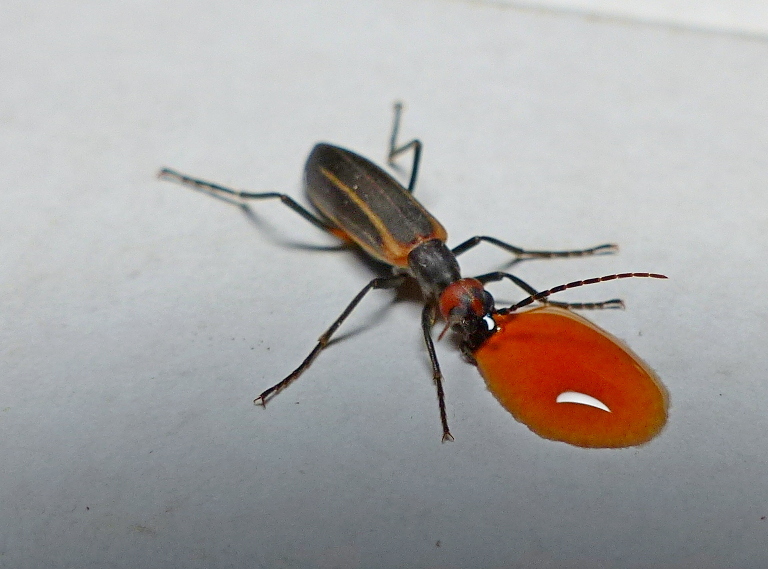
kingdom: Animalia
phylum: Arthropoda
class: Insecta
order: Coleoptera
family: Meloidae
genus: Epicauta
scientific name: Epicauta grammica
